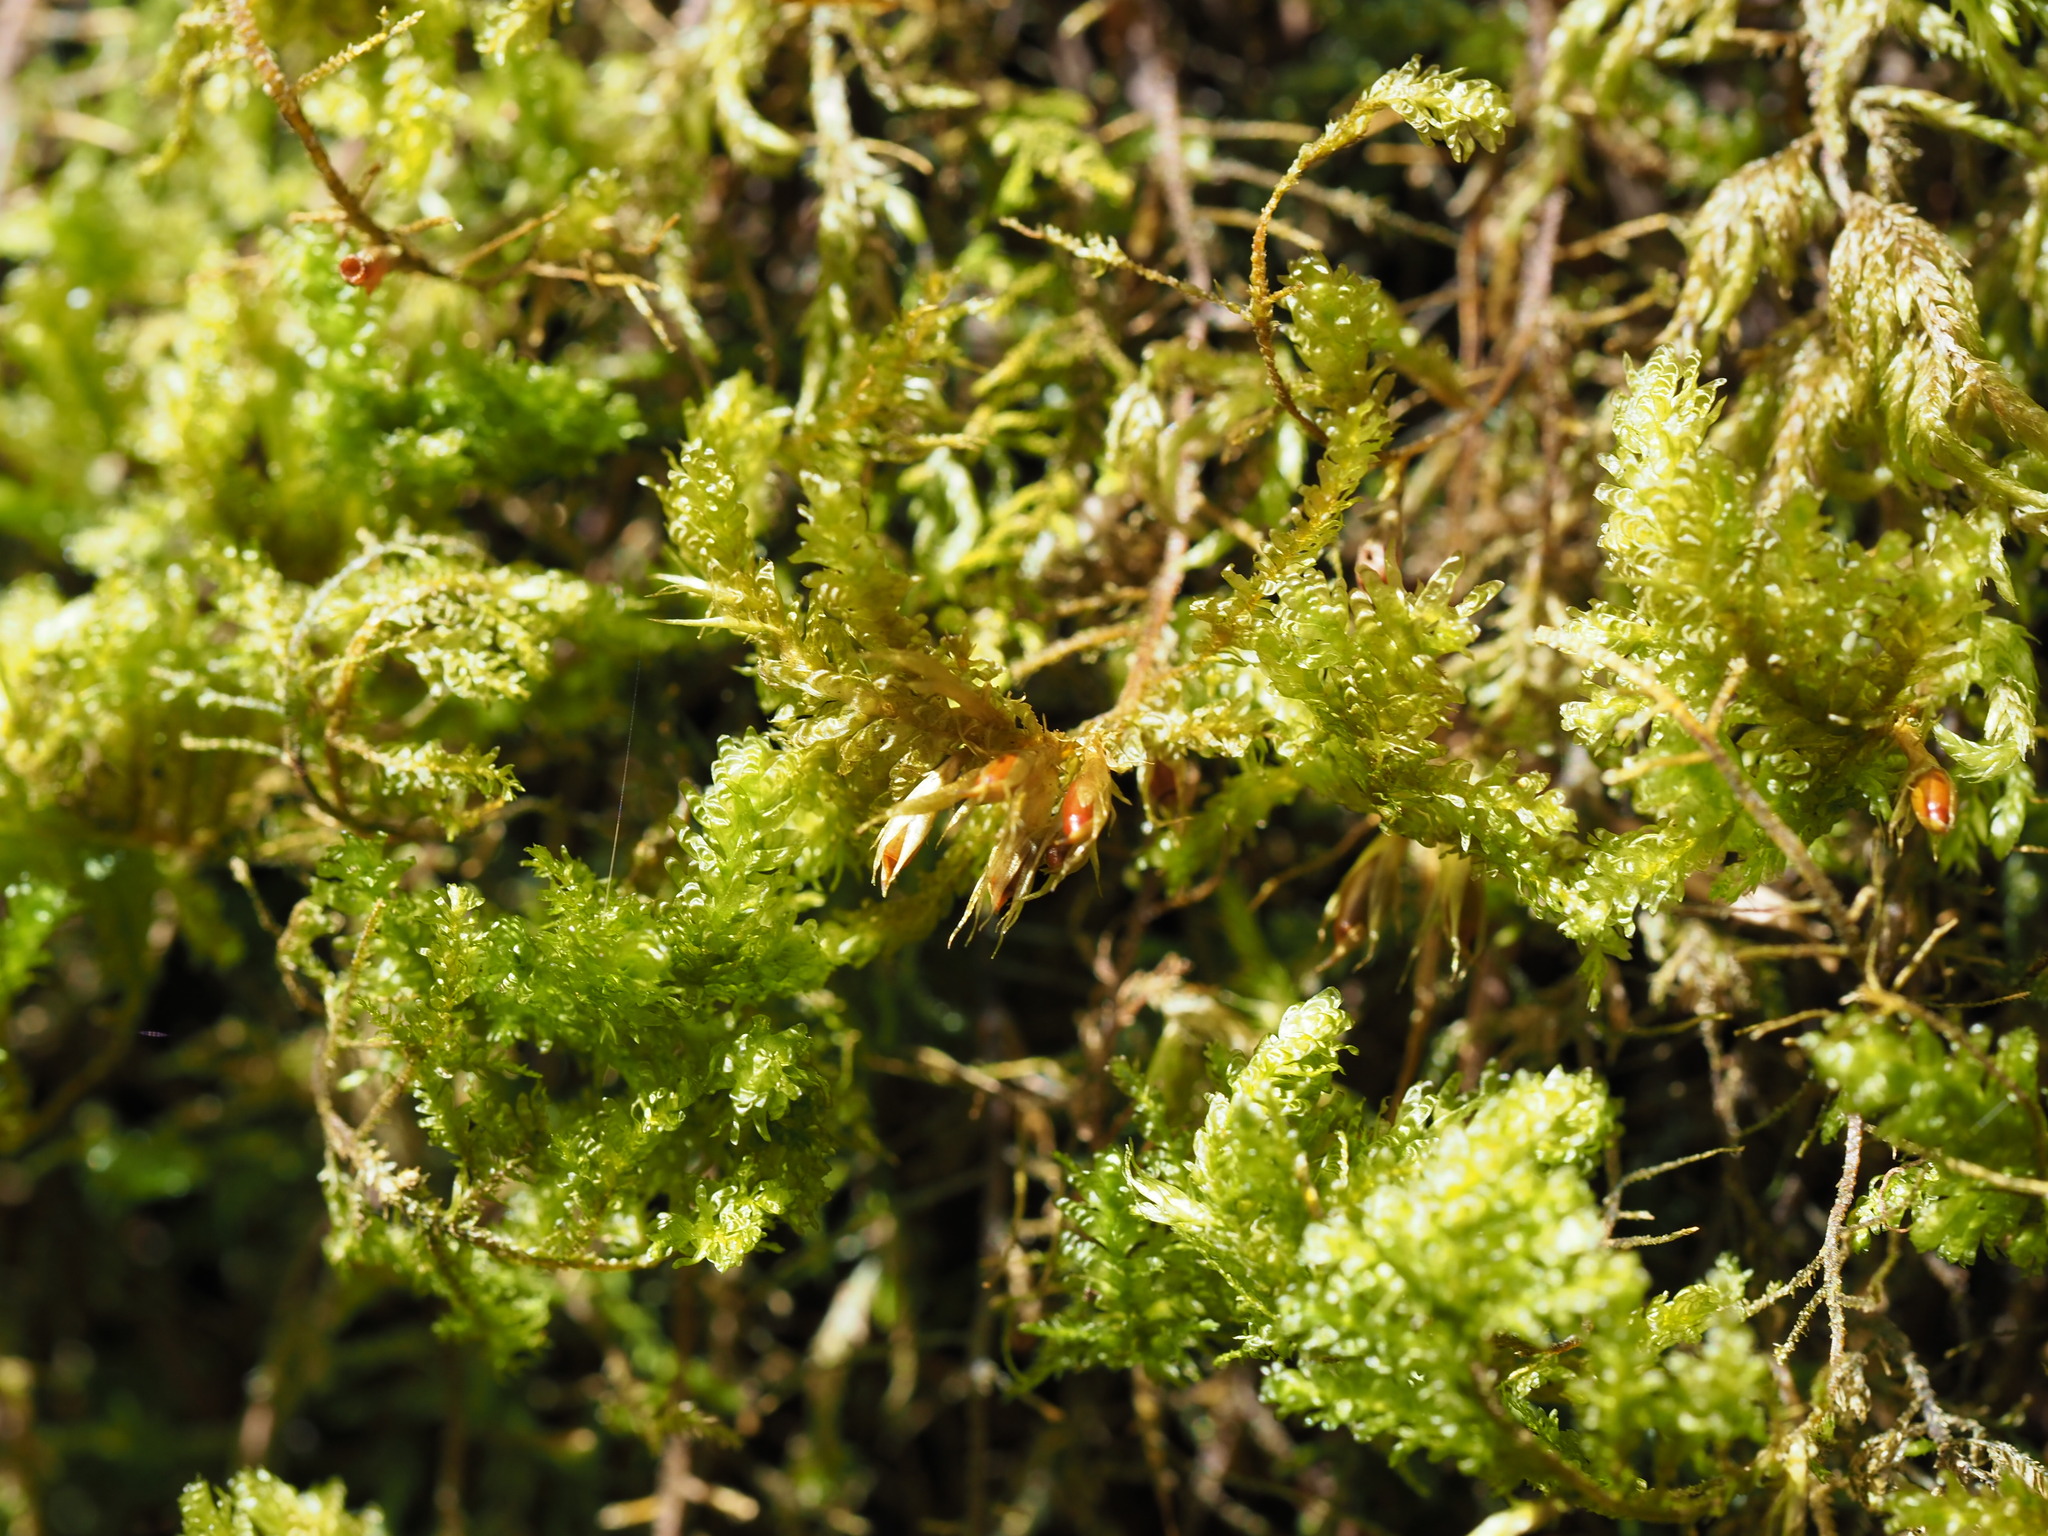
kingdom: Plantae
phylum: Bryophyta
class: Bryopsida
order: Hypnales
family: Neckeraceae
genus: Metaneckera
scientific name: Metaneckera menziesii
